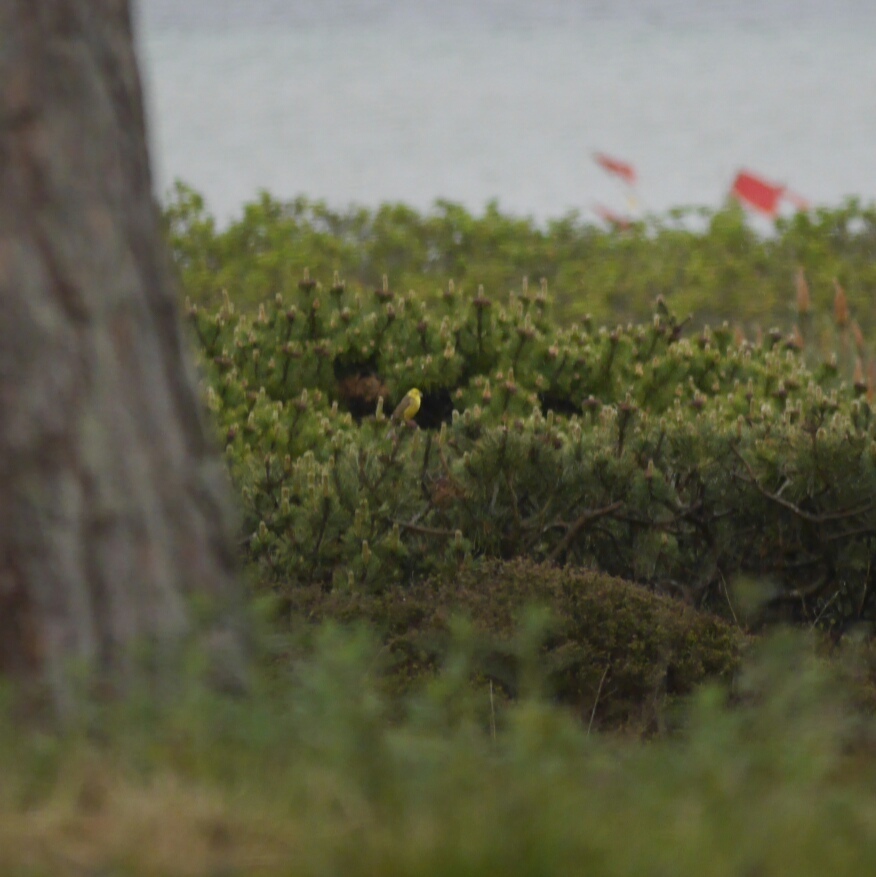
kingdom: Animalia
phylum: Chordata
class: Aves
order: Passeriformes
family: Emberizidae
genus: Emberiza
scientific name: Emberiza citrinella
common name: Yellowhammer
